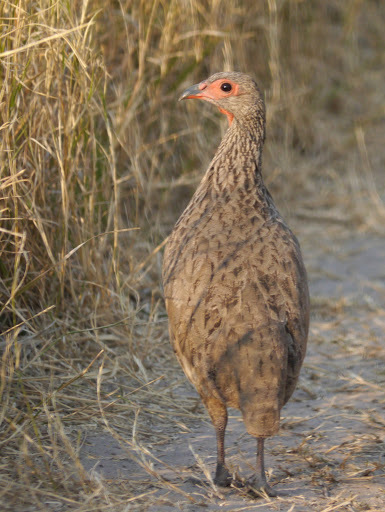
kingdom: Animalia
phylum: Chordata
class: Aves
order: Galliformes
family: Phasianidae
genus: Pternistis
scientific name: Pternistis swainsonii
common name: Swainson's spurfowl
